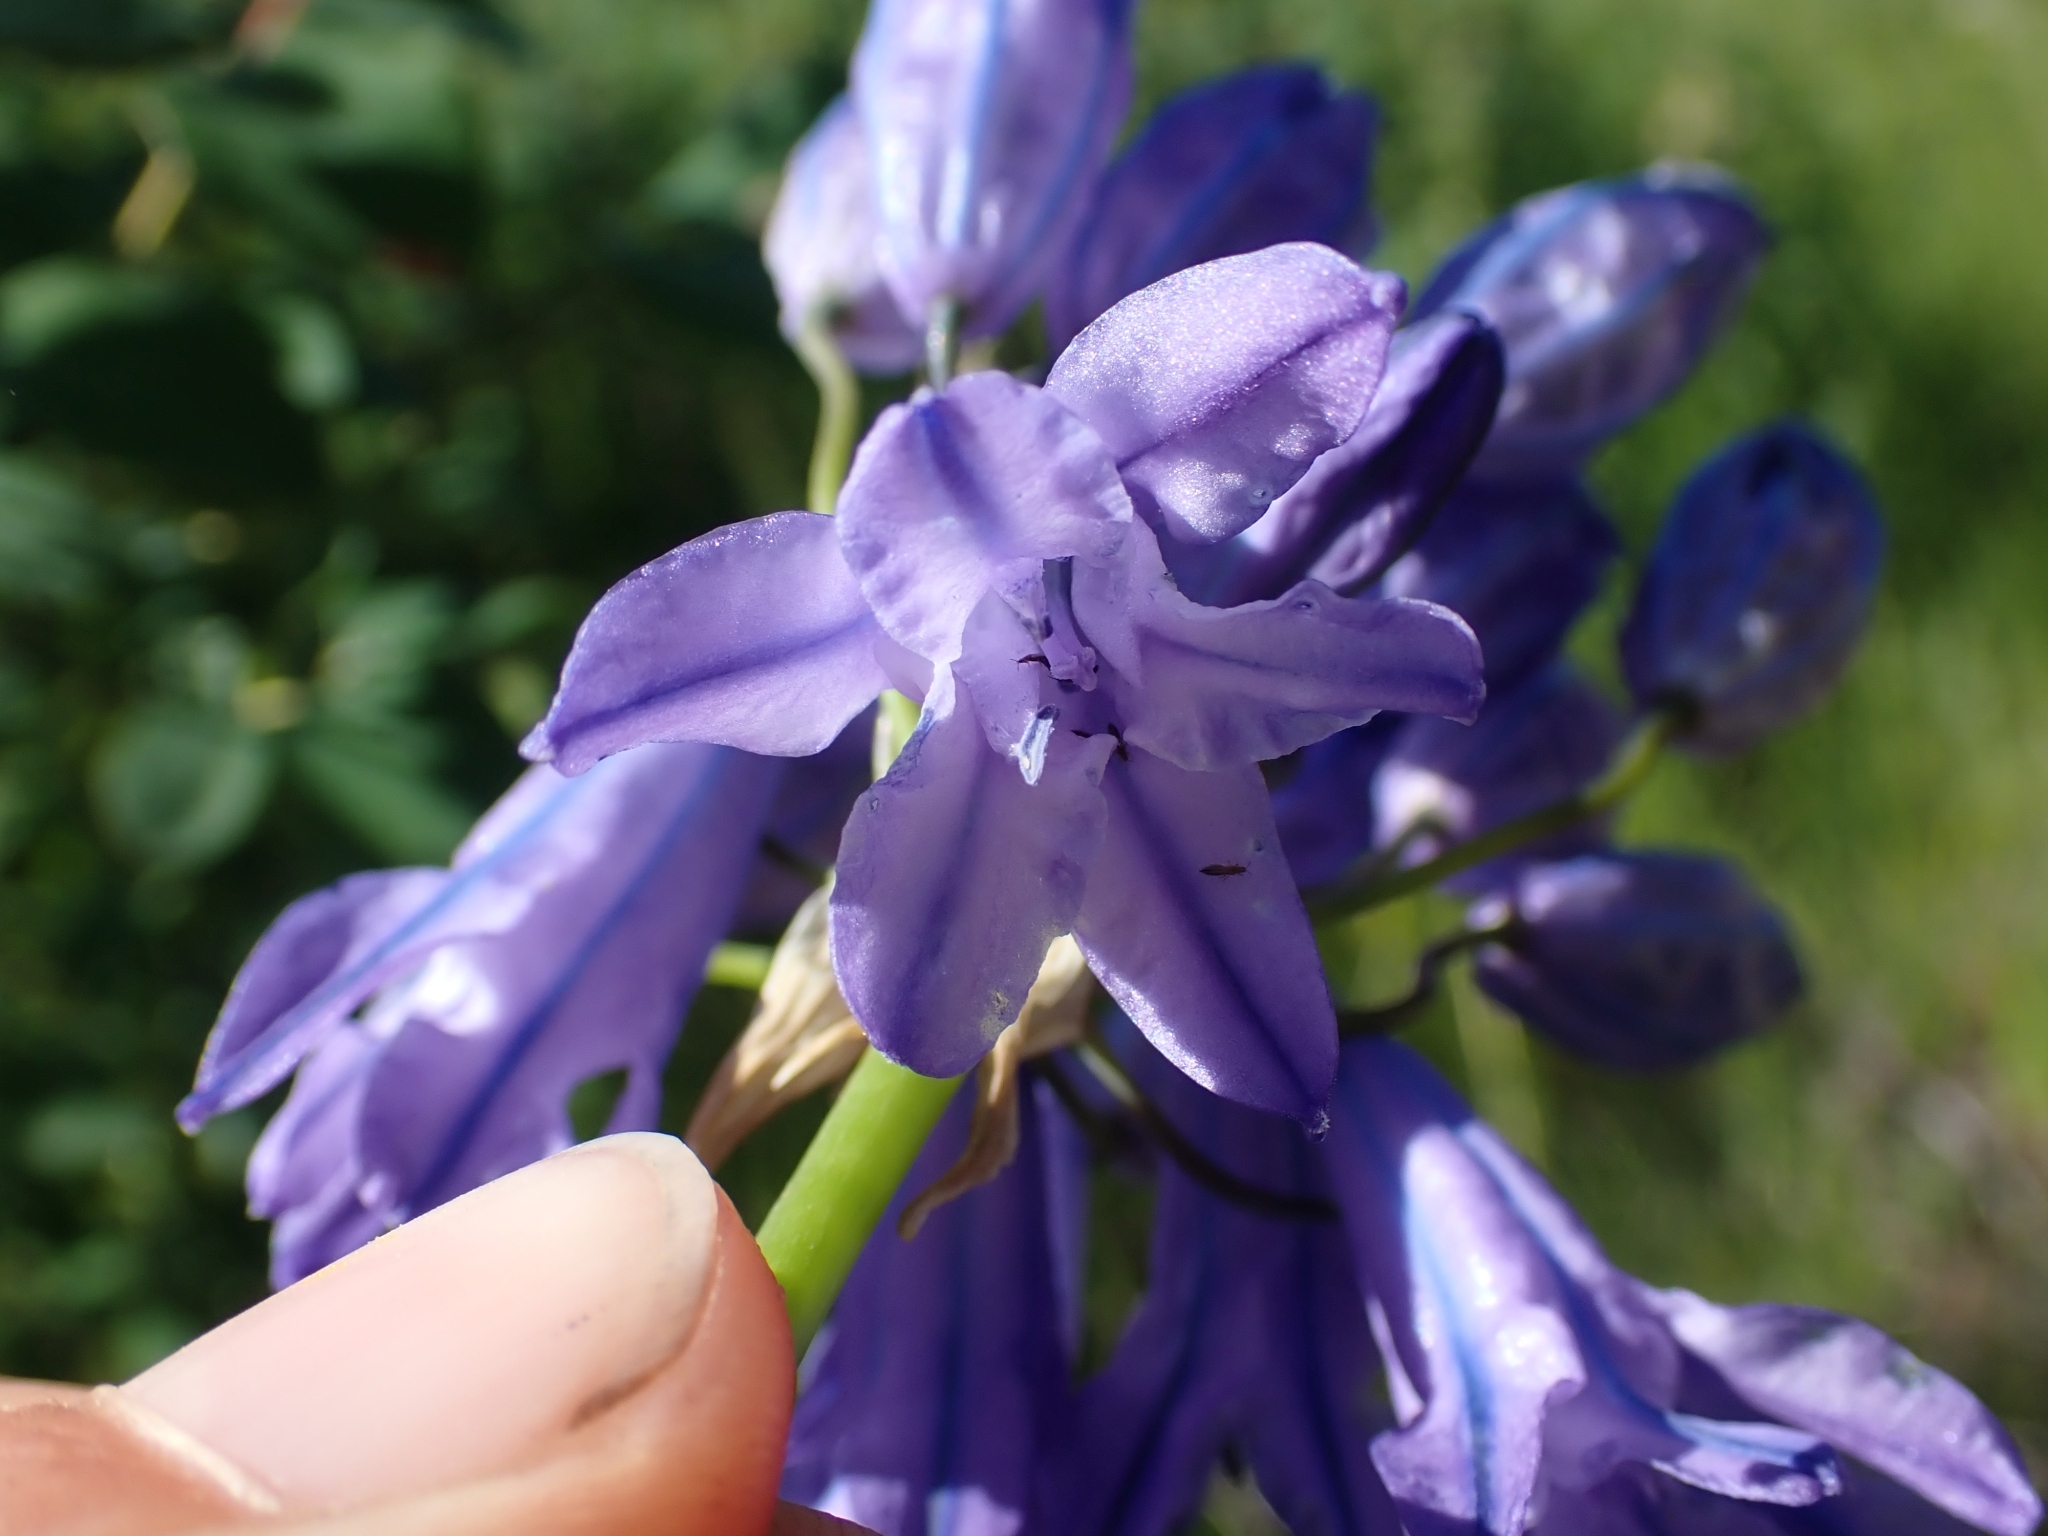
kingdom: Plantae
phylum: Tracheophyta
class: Liliopsida
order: Asparagales
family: Asparagaceae
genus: Triteleia
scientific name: Triteleia grandiflora
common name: Wild hyacinth
